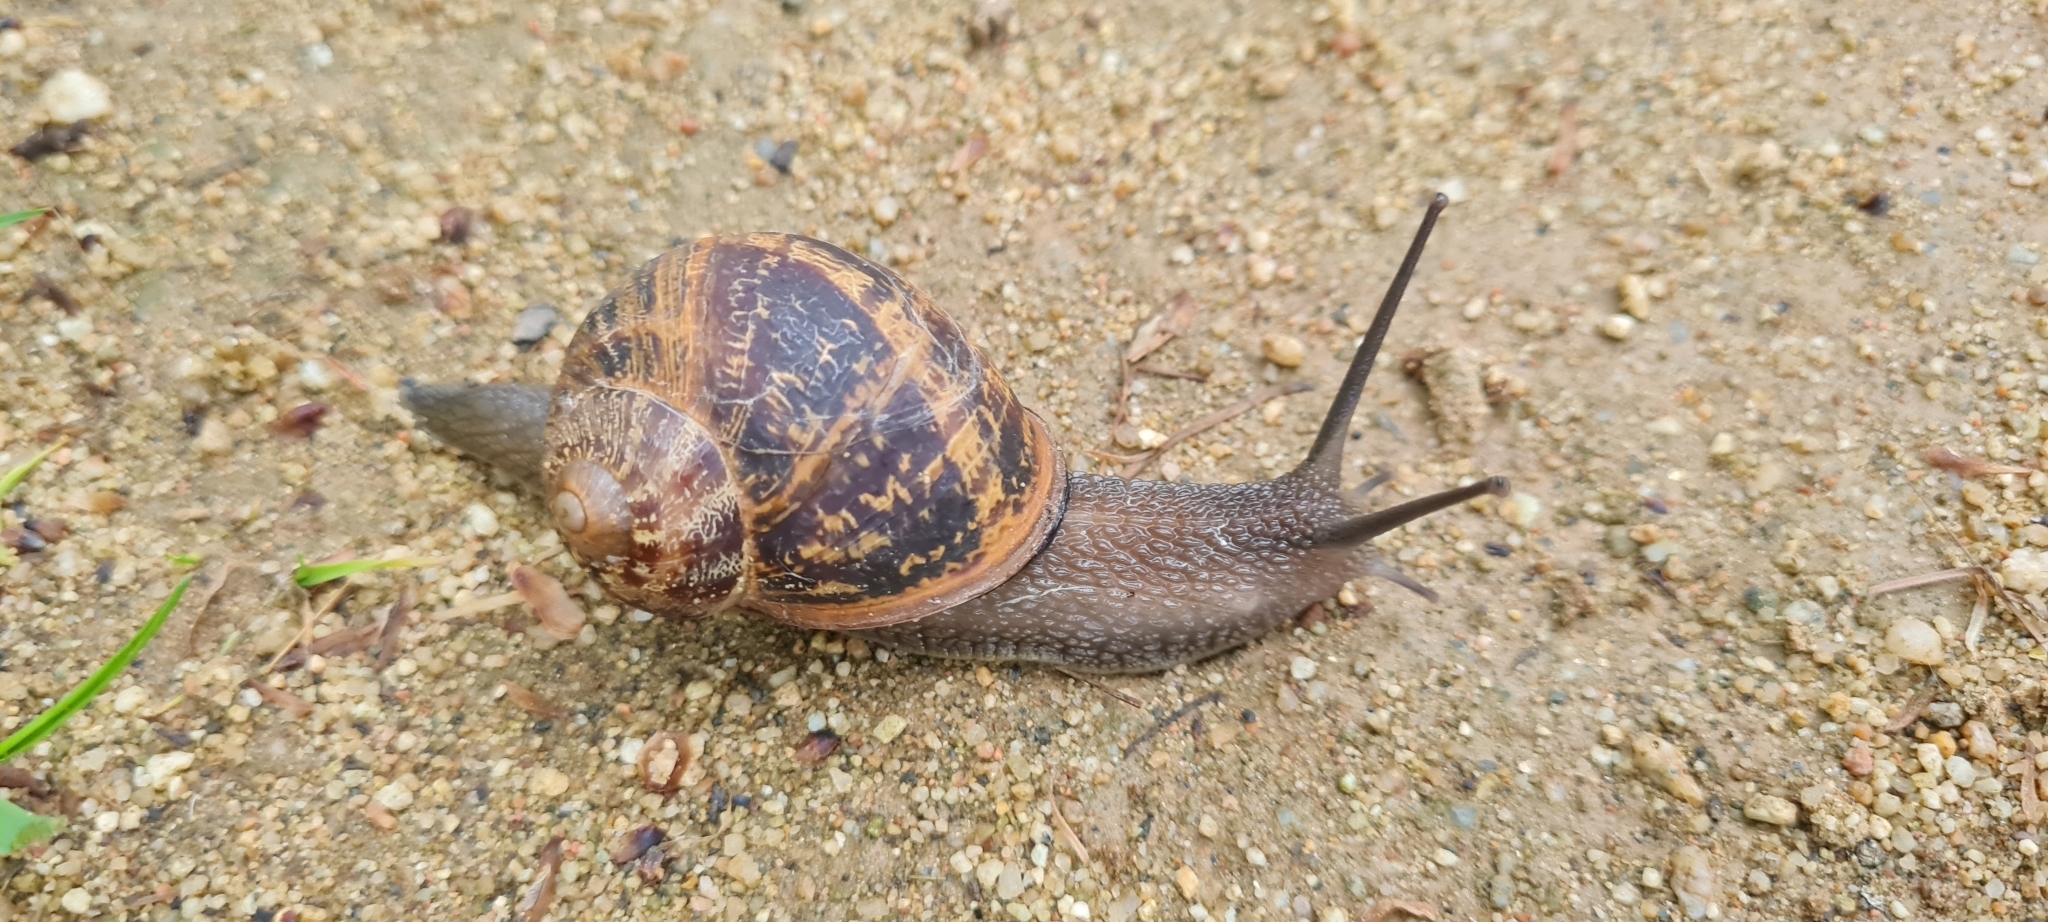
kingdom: Animalia
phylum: Mollusca
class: Gastropoda
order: Stylommatophora
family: Helicidae
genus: Cornu
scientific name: Cornu aspersum
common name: Brown garden snail
